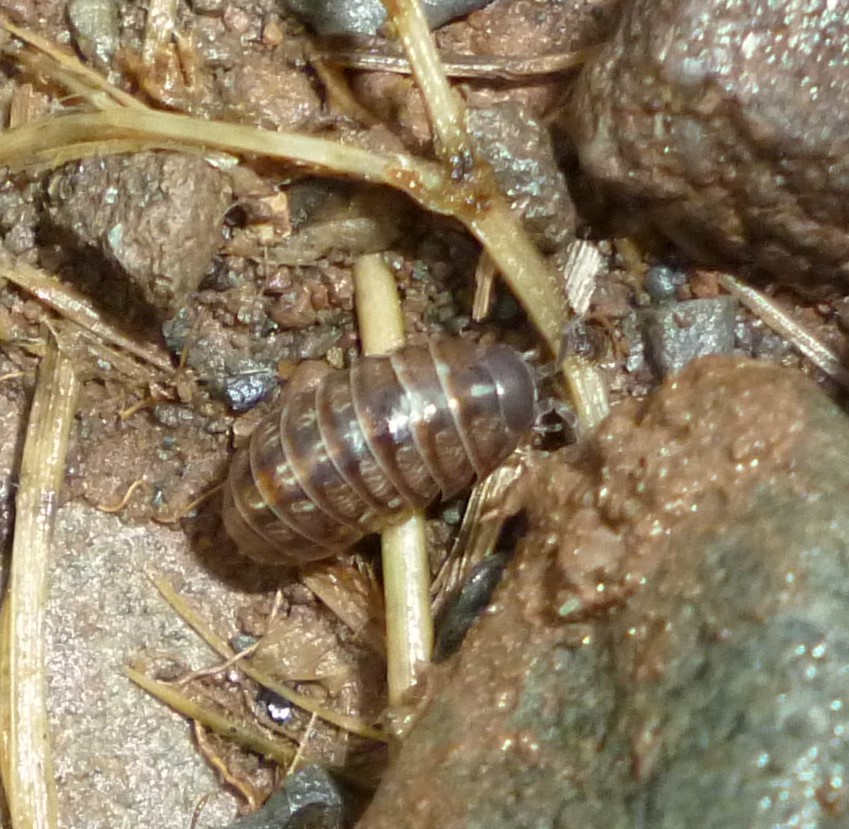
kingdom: Animalia
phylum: Arthropoda
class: Malacostraca
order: Isopoda
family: Armadillidiidae
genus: Armadillidium
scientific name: Armadillidium vulgare
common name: Common pill woodlouse
